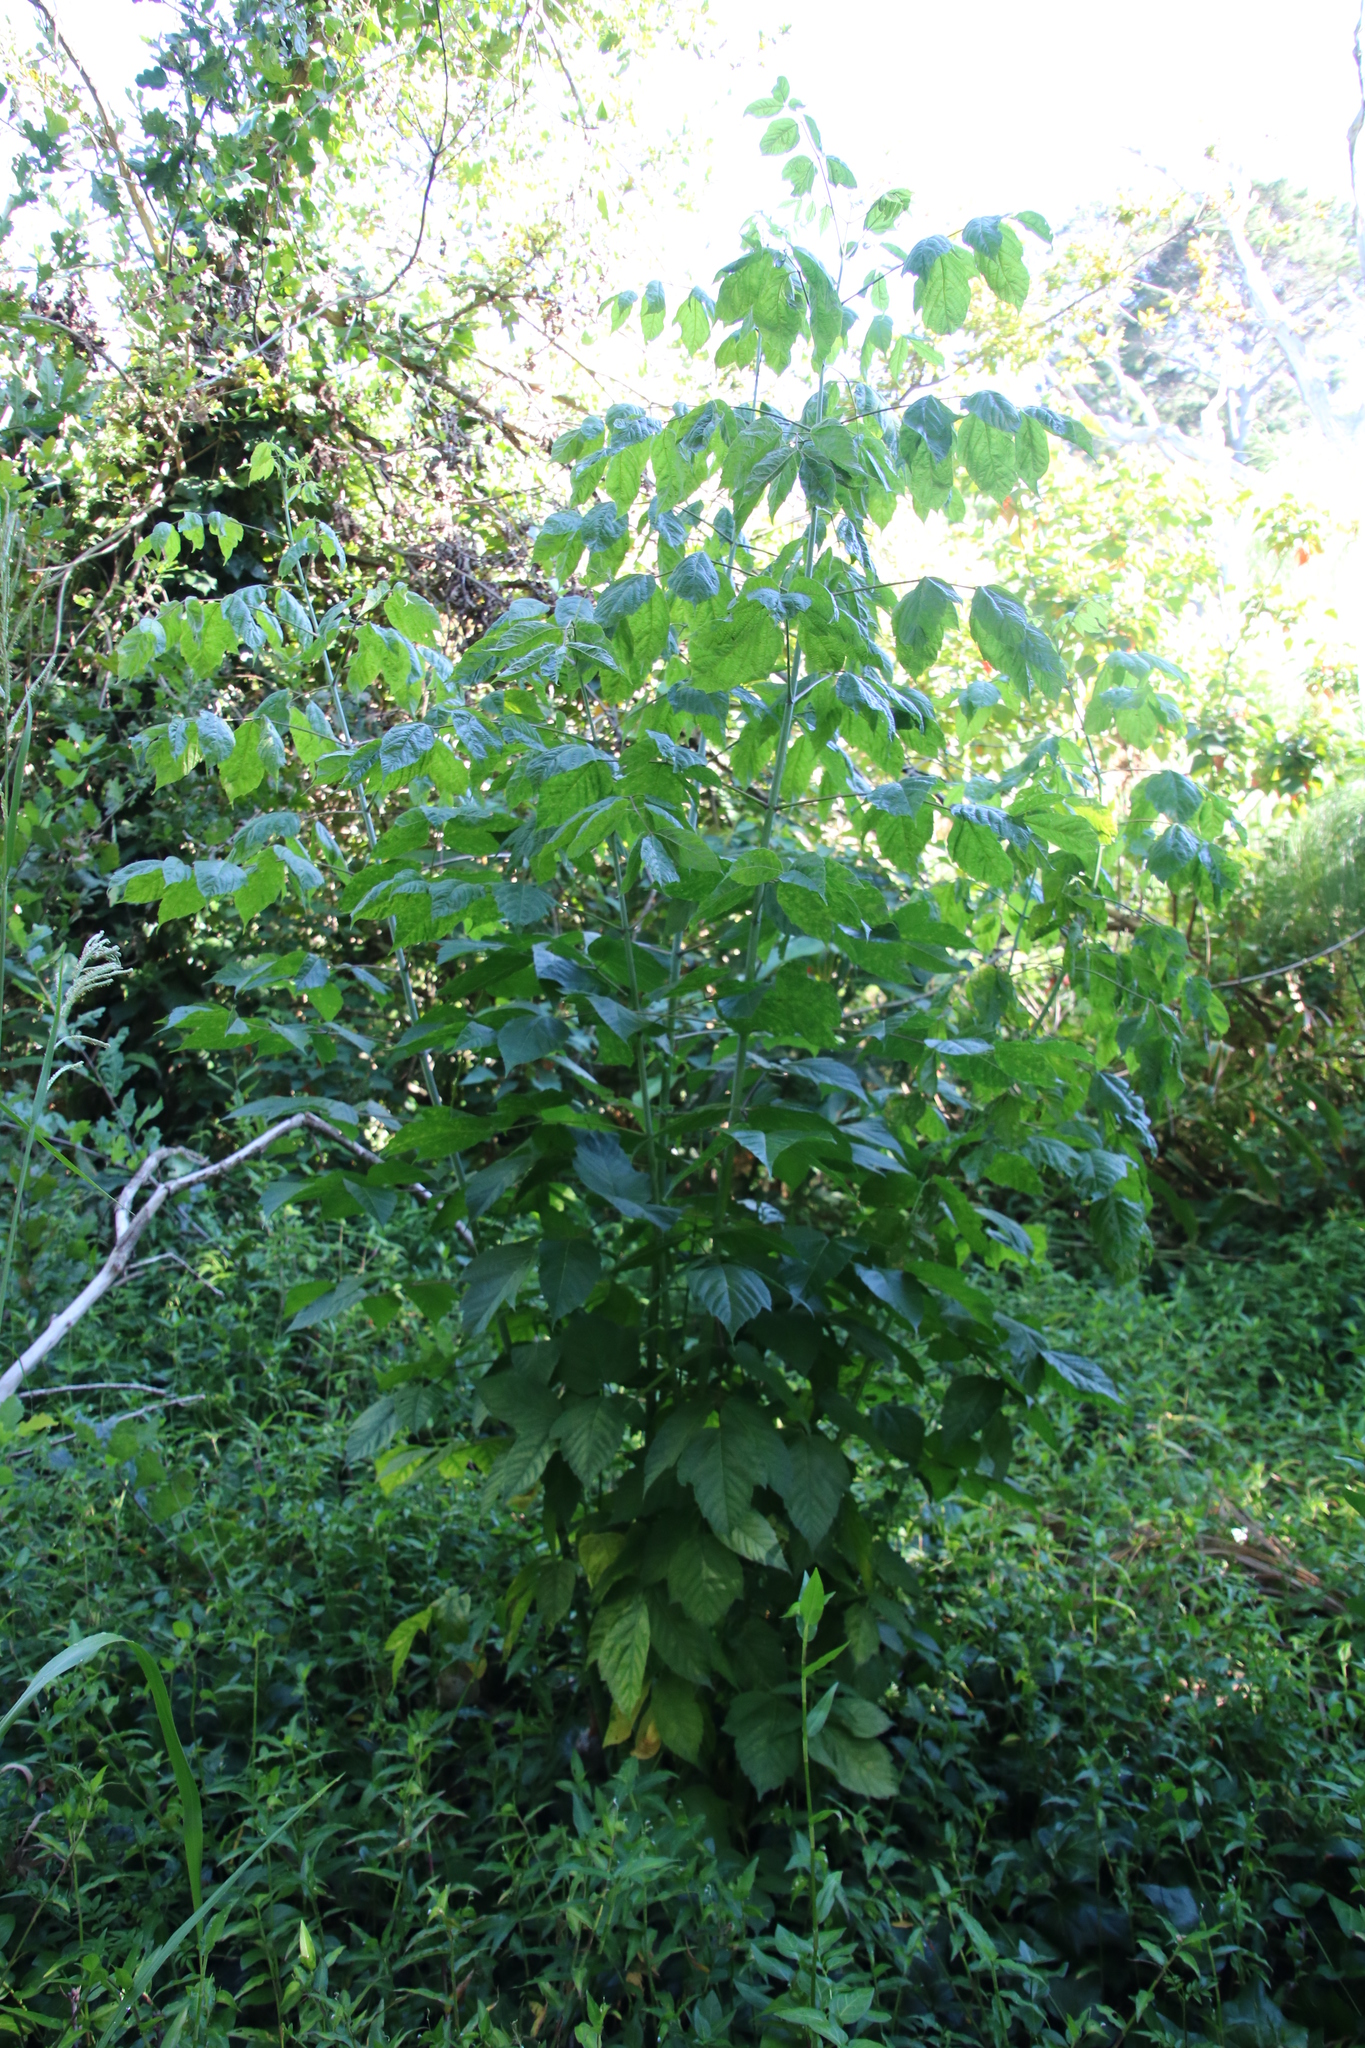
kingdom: Plantae
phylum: Tracheophyta
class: Magnoliopsida
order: Sapindales
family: Sapindaceae
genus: Acer
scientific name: Acer negundo
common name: Ashleaf maple
